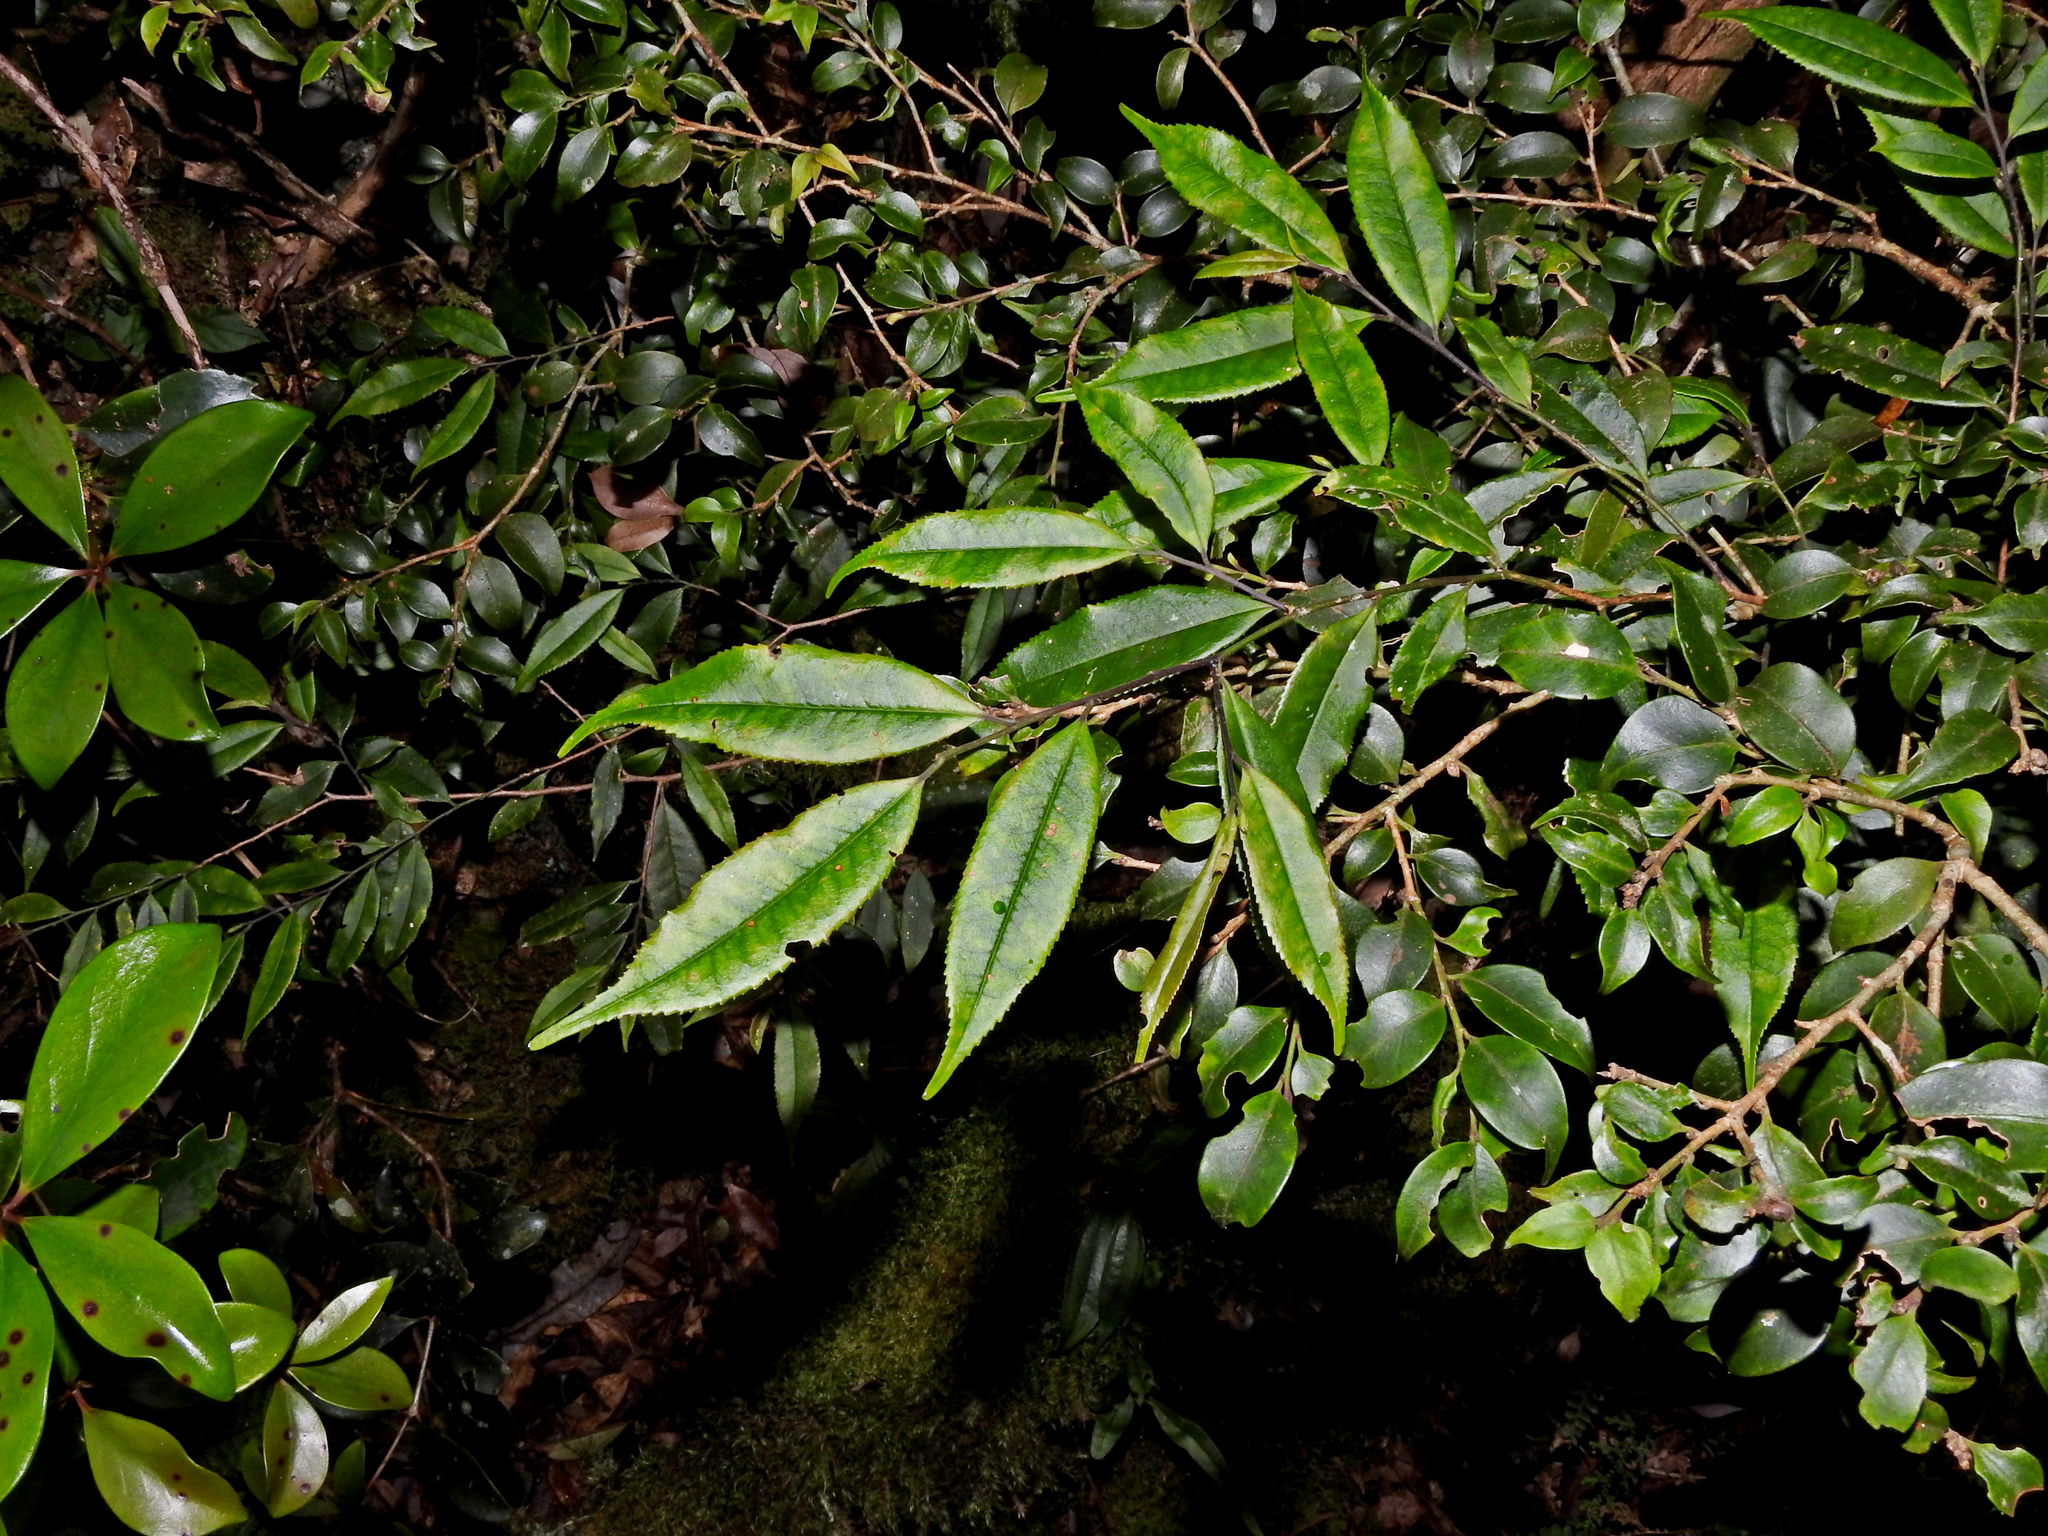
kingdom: Plantae
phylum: Tracheophyta
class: Magnoliopsida
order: Ericales
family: Pentaphylacaceae
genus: Eurya
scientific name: Eurya gnaphalocarpa
